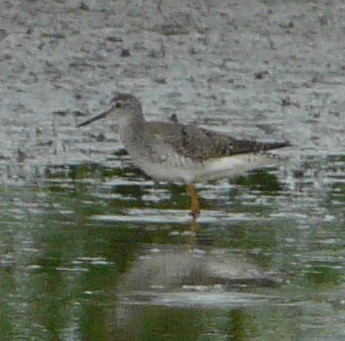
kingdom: Animalia
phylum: Chordata
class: Aves
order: Charadriiformes
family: Scolopacidae
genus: Tringa
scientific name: Tringa flavipes
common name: Lesser yellowlegs
